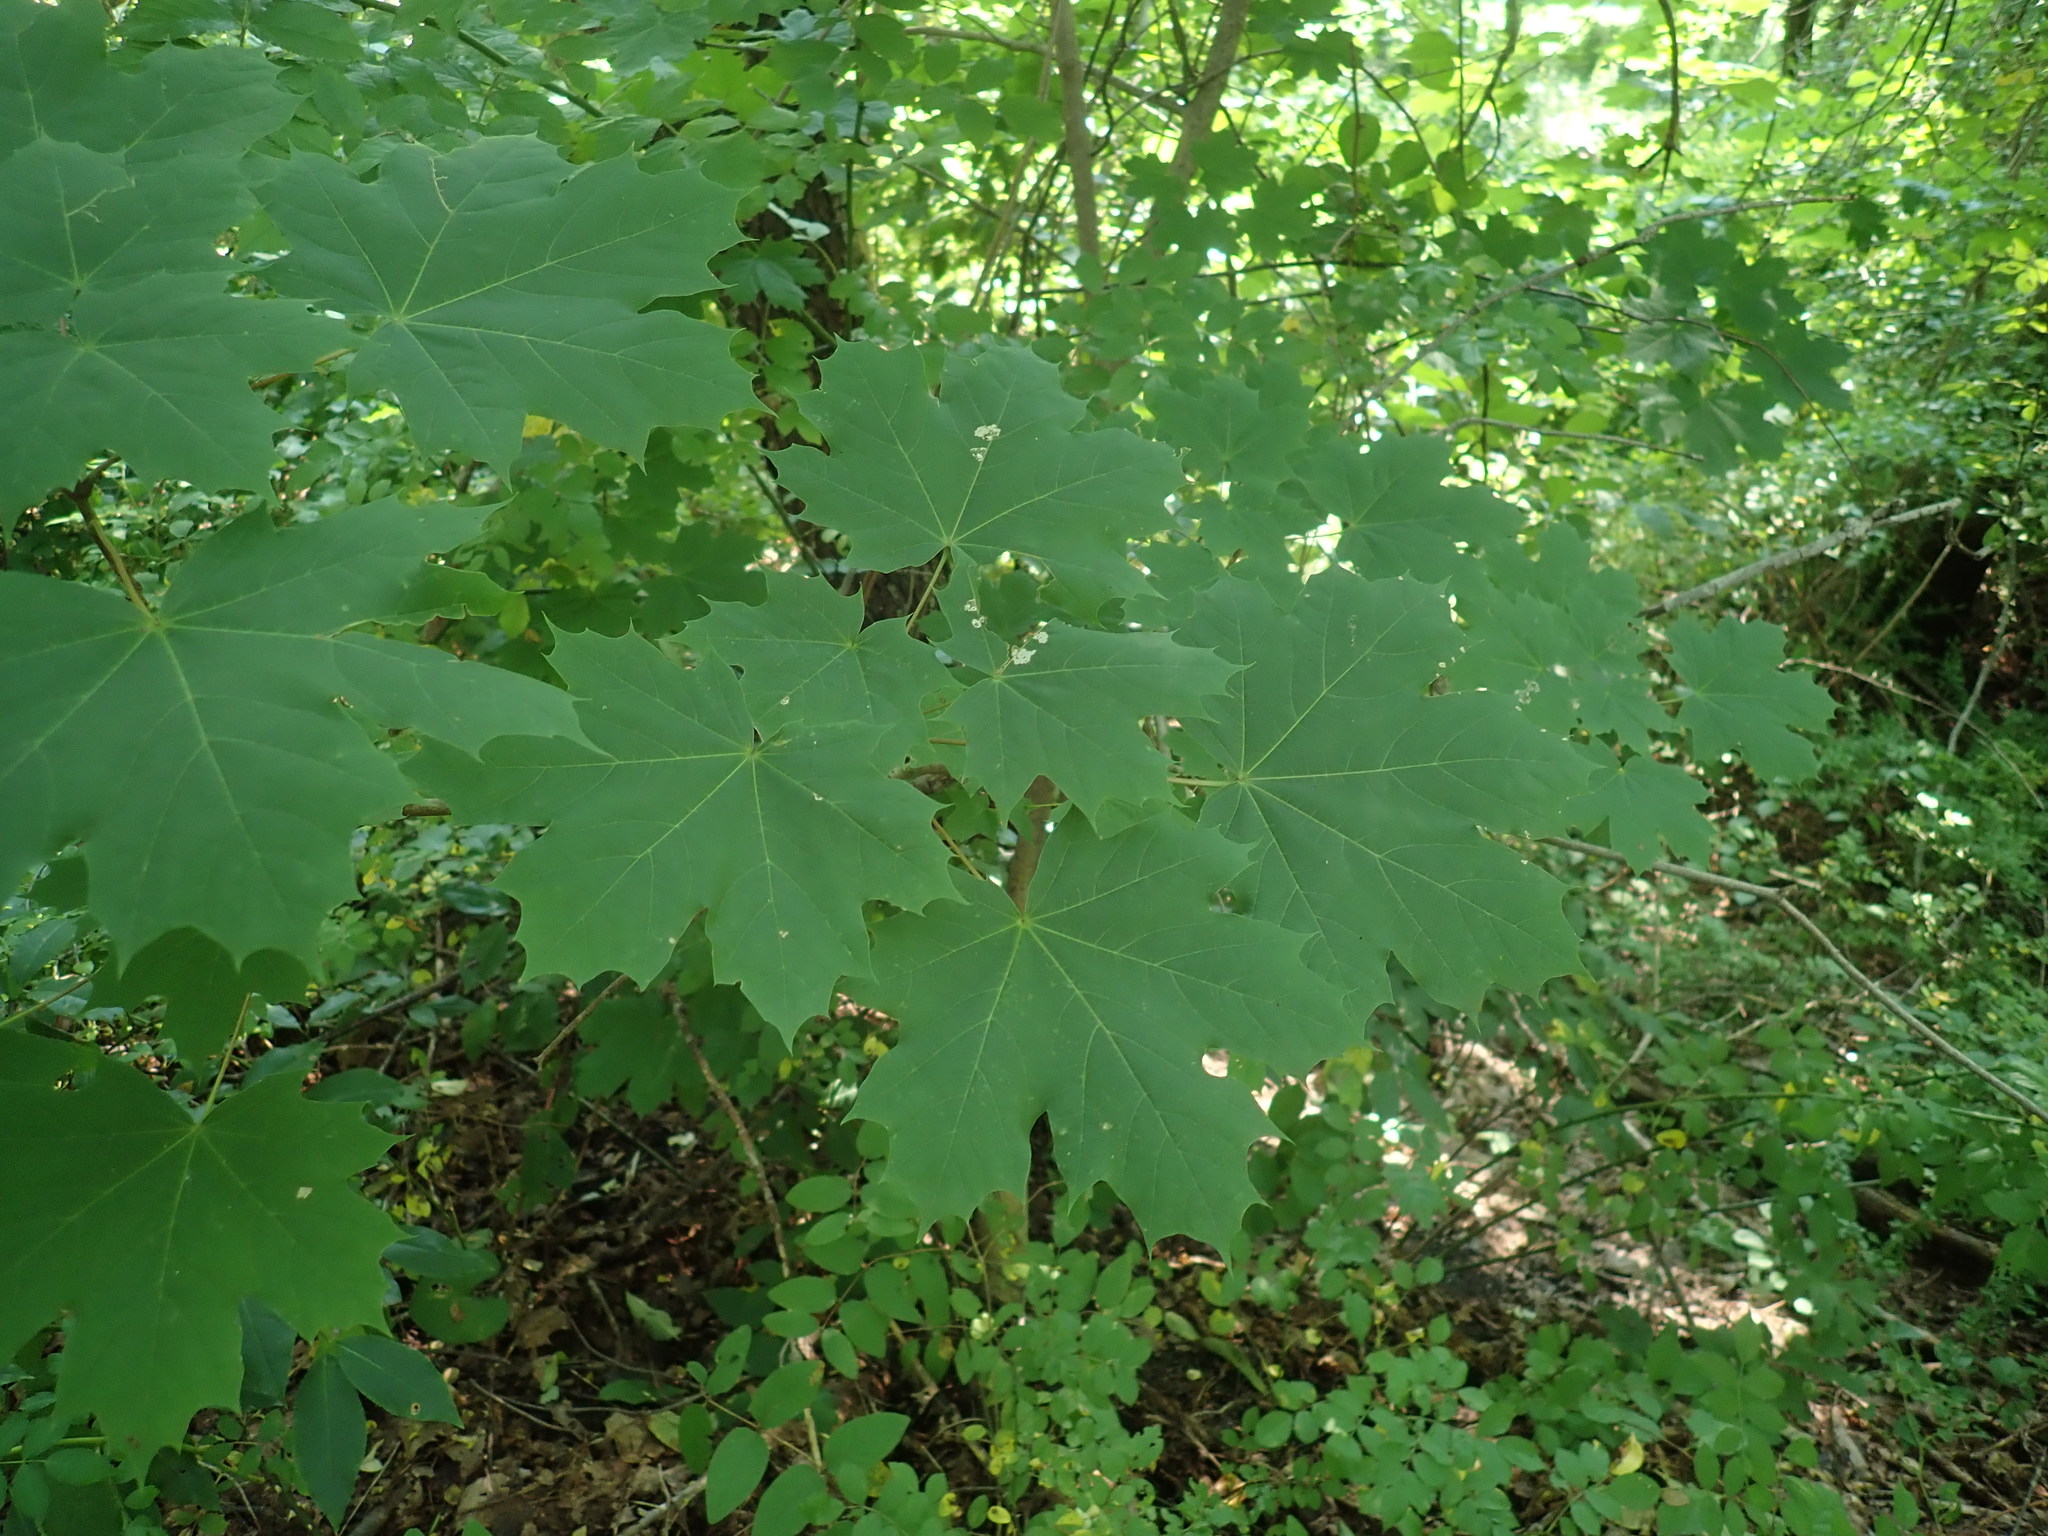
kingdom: Plantae
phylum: Tracheophyta
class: Magnoliopsida
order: Sapindales
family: Sapindaceae
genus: Acer
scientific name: Acer platanoides
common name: Norway maple
